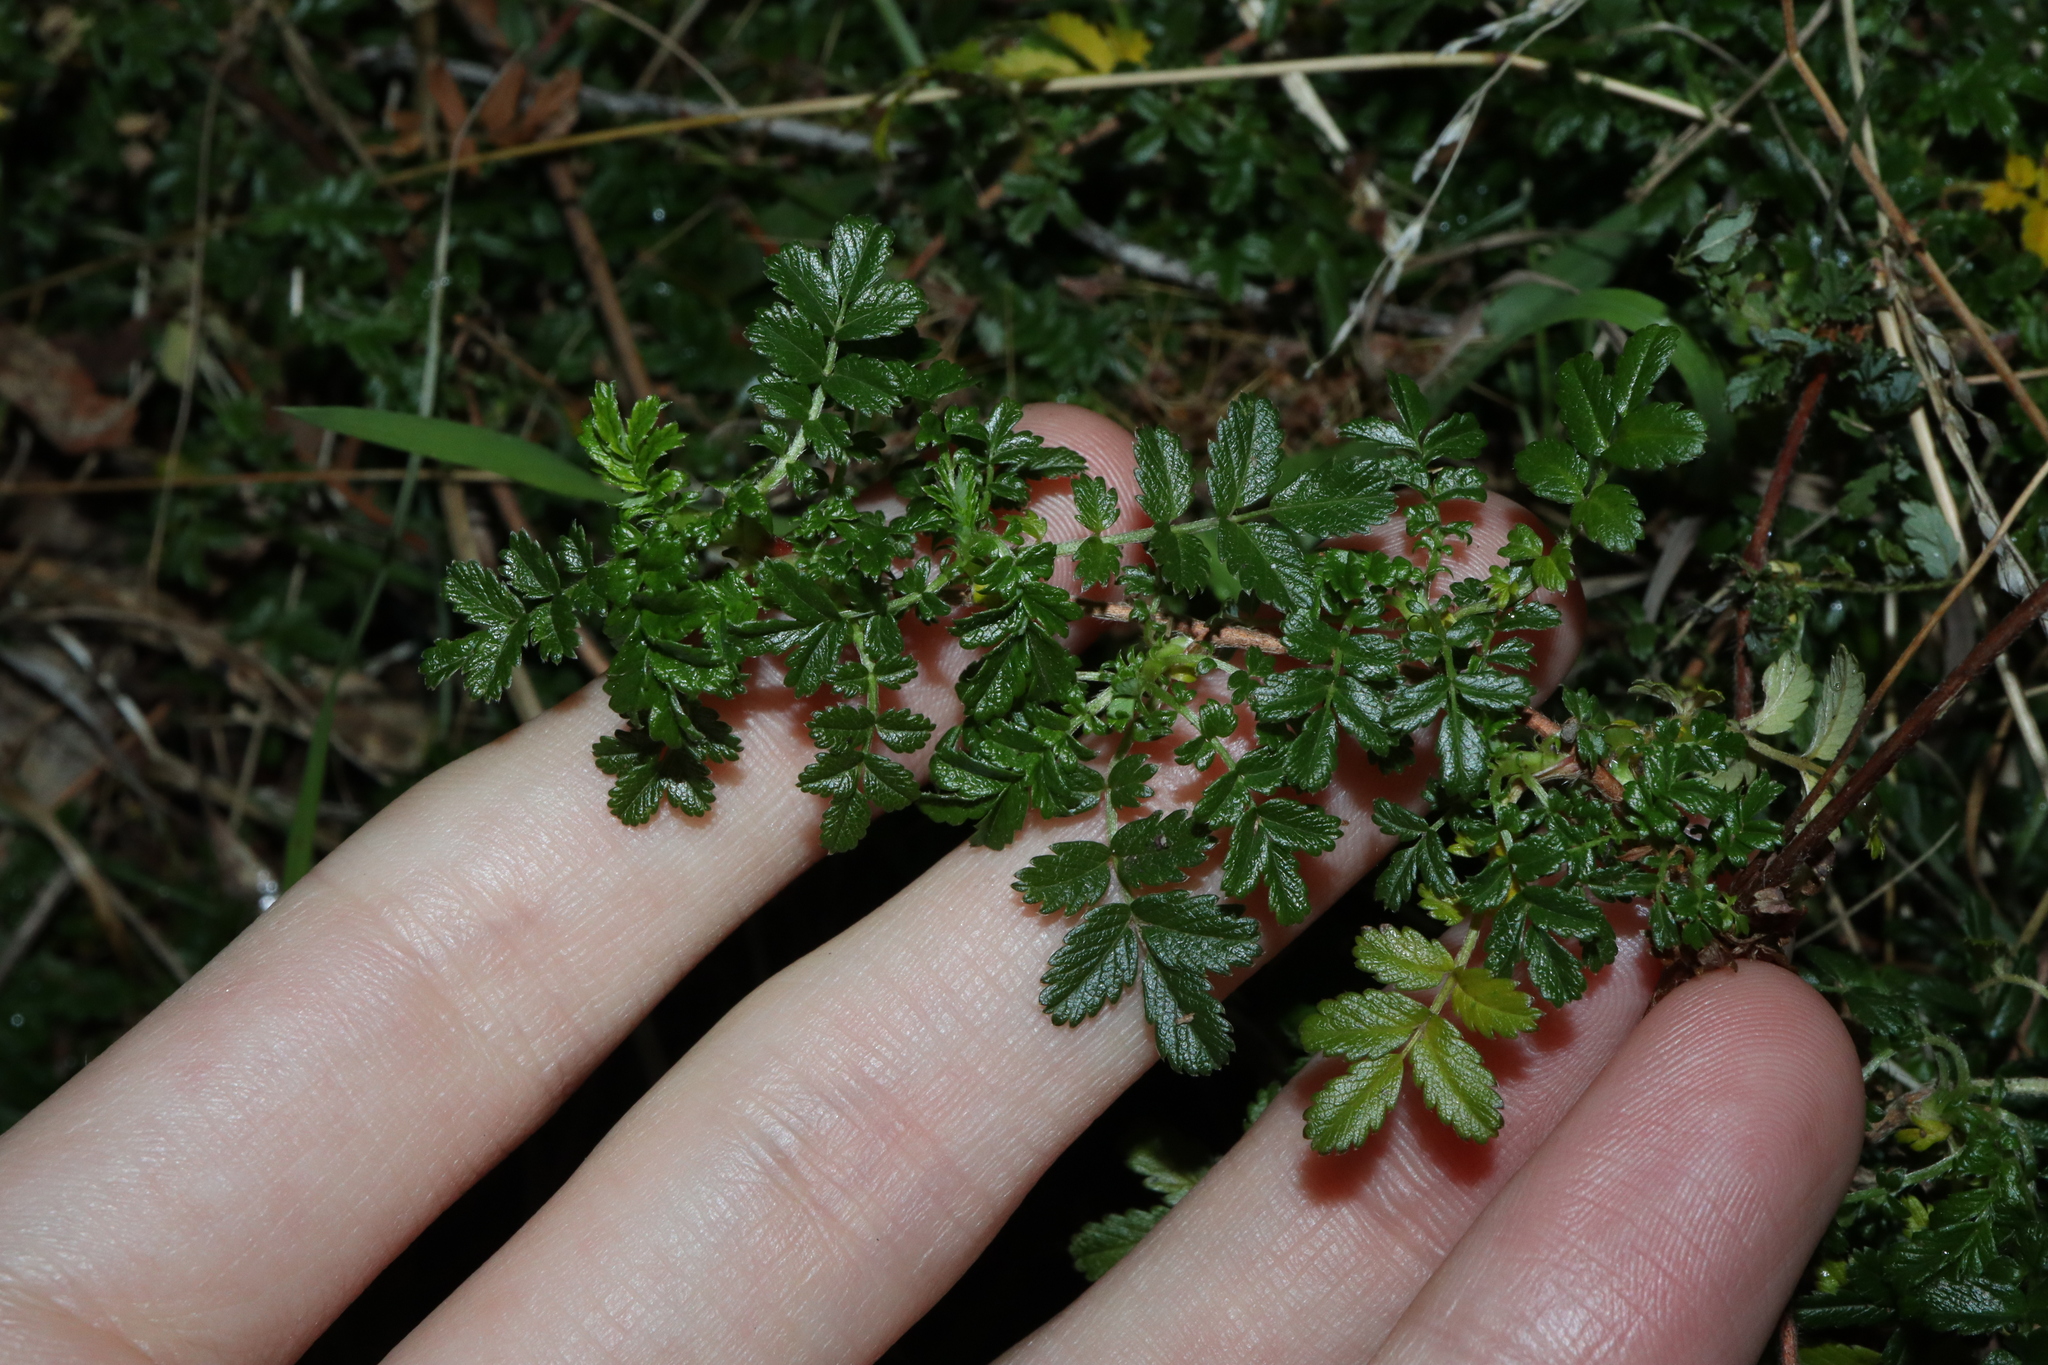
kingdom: Plantae
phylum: Tracheophyta
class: Magnoliopsida
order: Rosales
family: Rosaceae
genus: Acaena
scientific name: Acaena novae-zelandiae
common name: Pirri-pirri-bur
